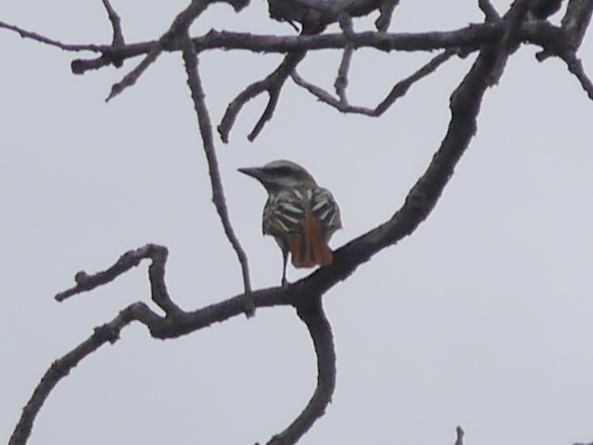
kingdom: Animalia
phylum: Chordata
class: Aves
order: Passeriformes
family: Tyrannidae
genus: Myiodynastes
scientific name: Myiodynastes luteiventris
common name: Sulphur-bellied flycatcher
